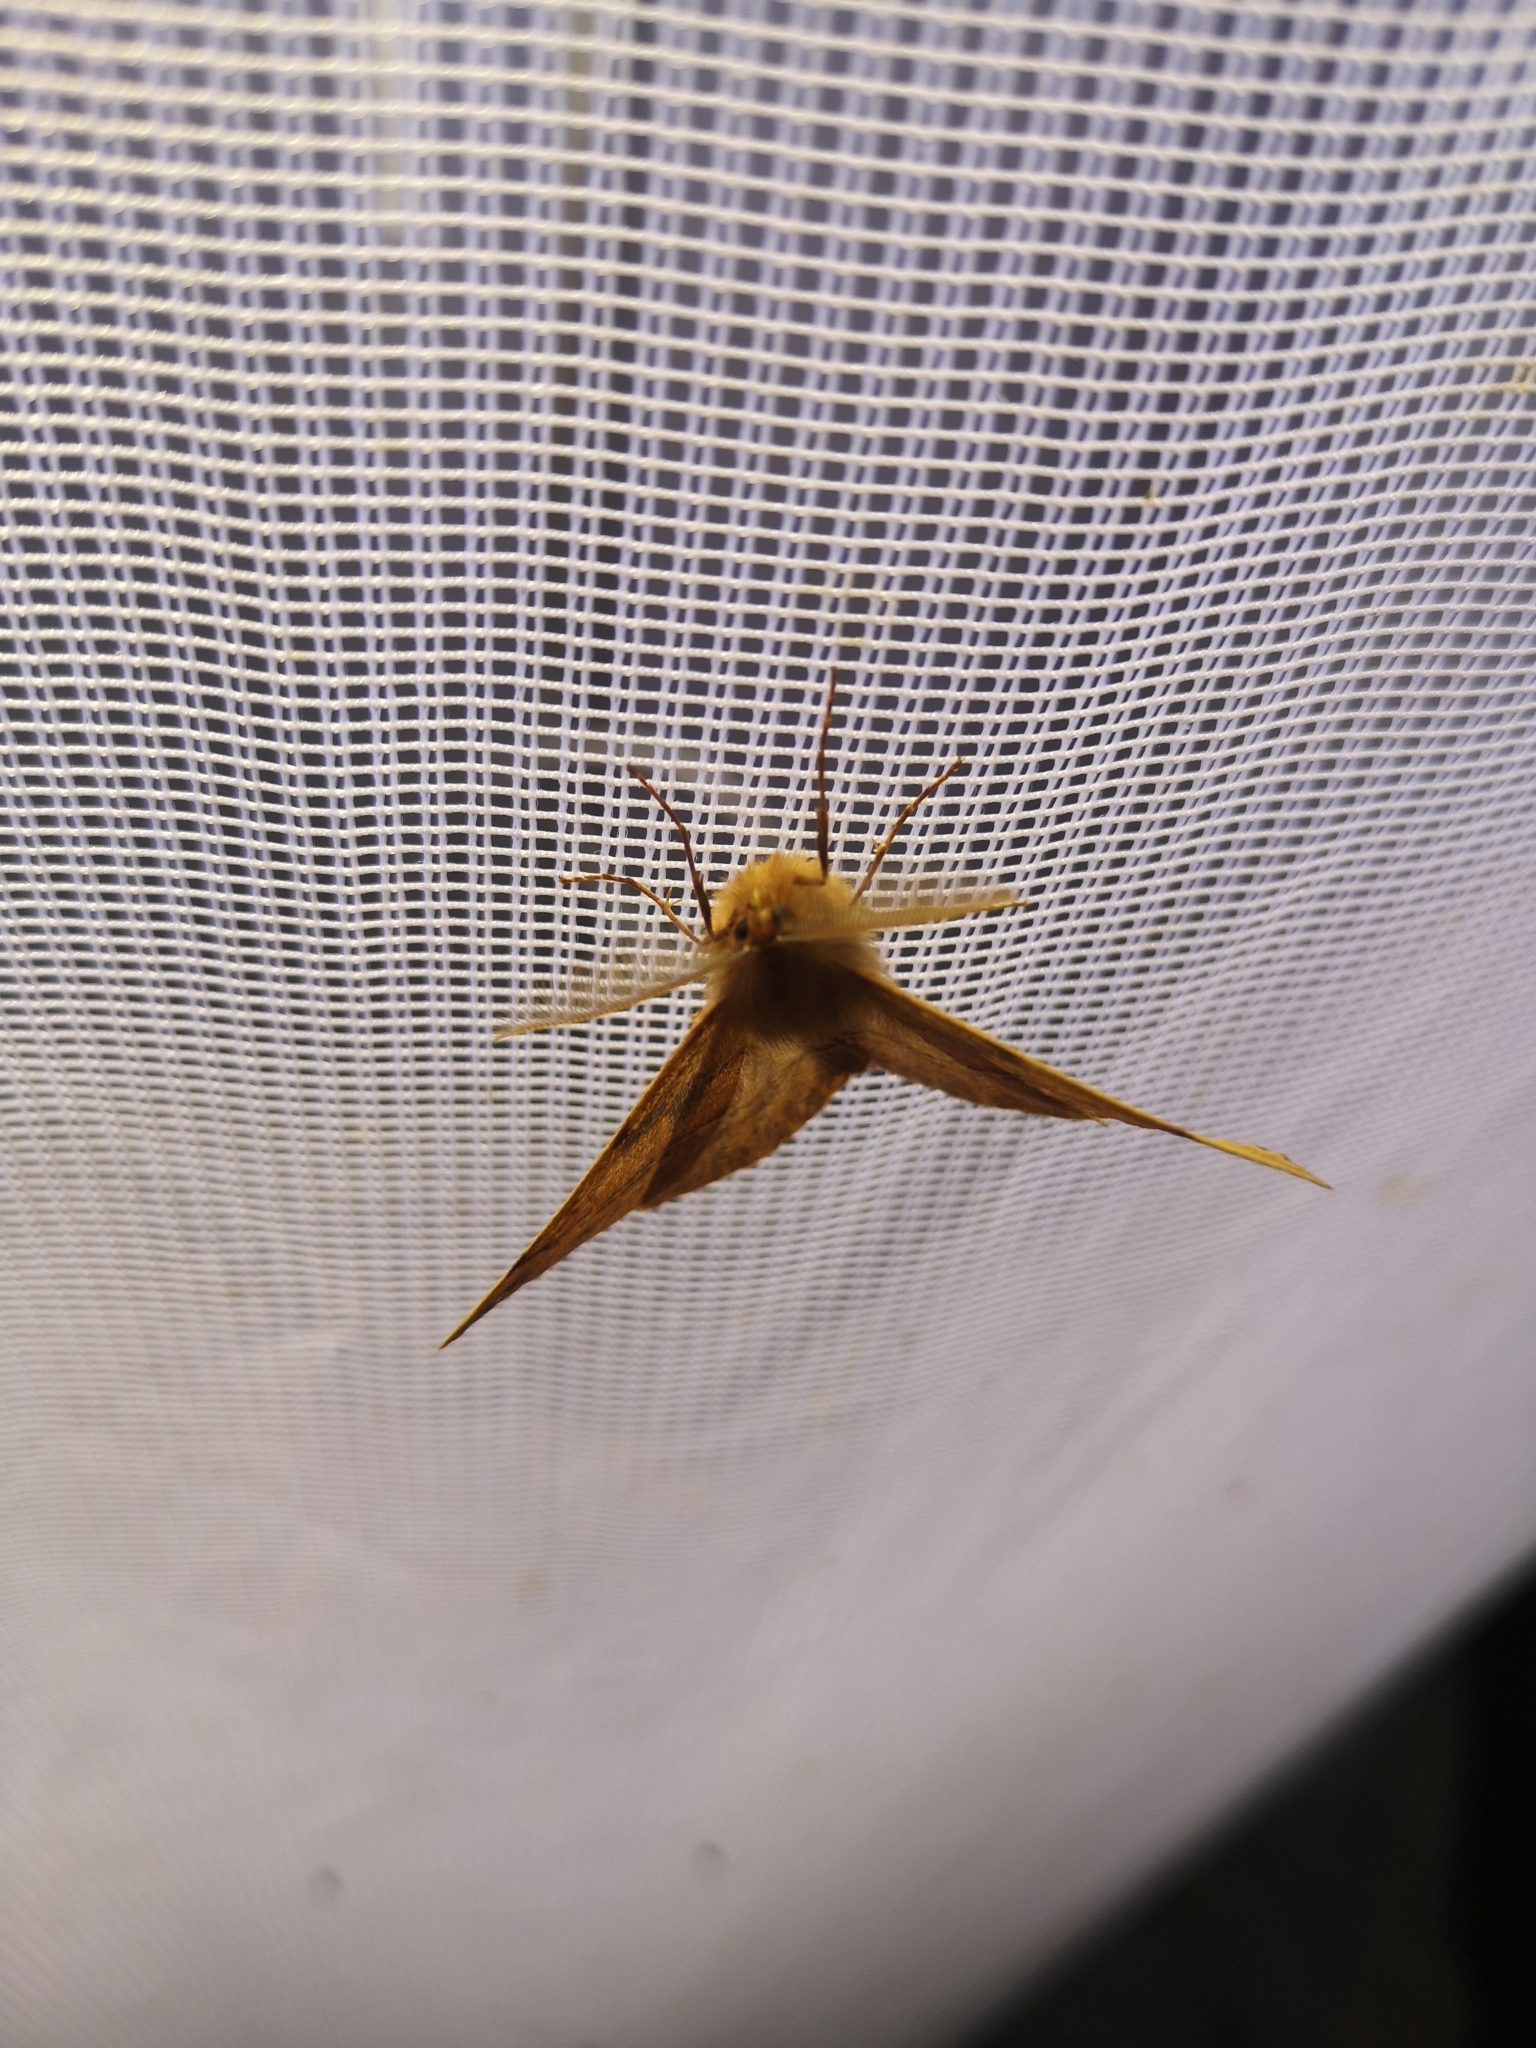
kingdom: Animalia
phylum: Arthropoda
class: Insecta
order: Lepidoptera
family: Geometridae
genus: Colotois
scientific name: Colotois pennaria
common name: Feathered thorn
